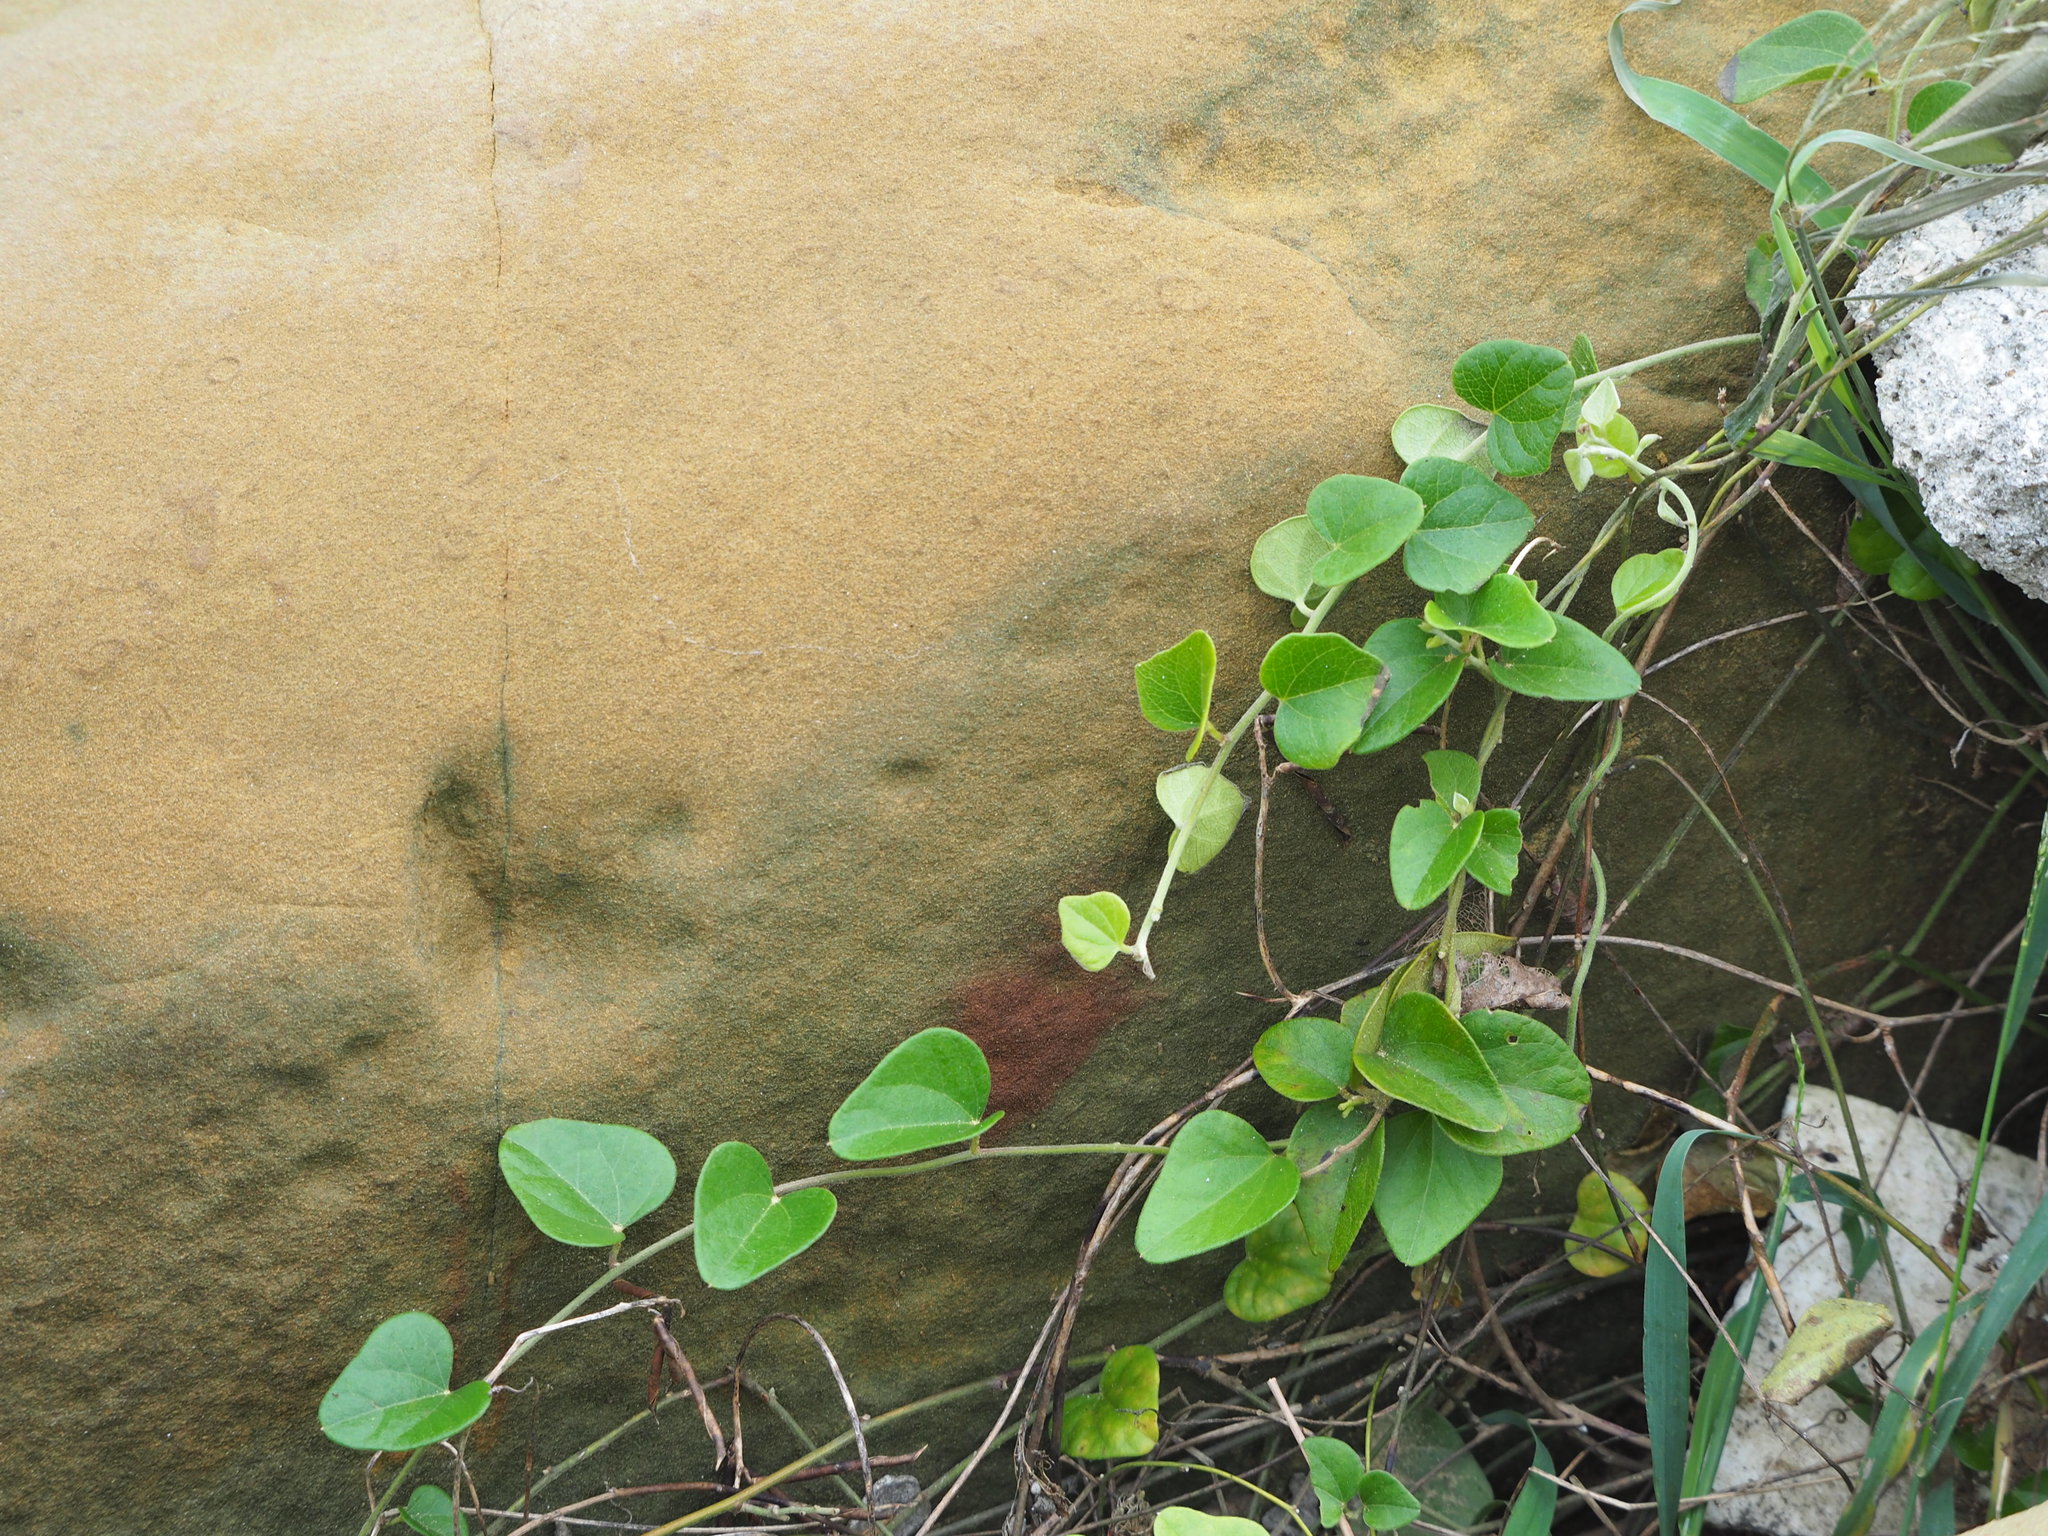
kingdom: Plantae
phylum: Tracheophyta
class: Magnoliopsida
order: Ranunculales
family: Menispermaceae
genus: Cocculus
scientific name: Cocculus orbiculatus
